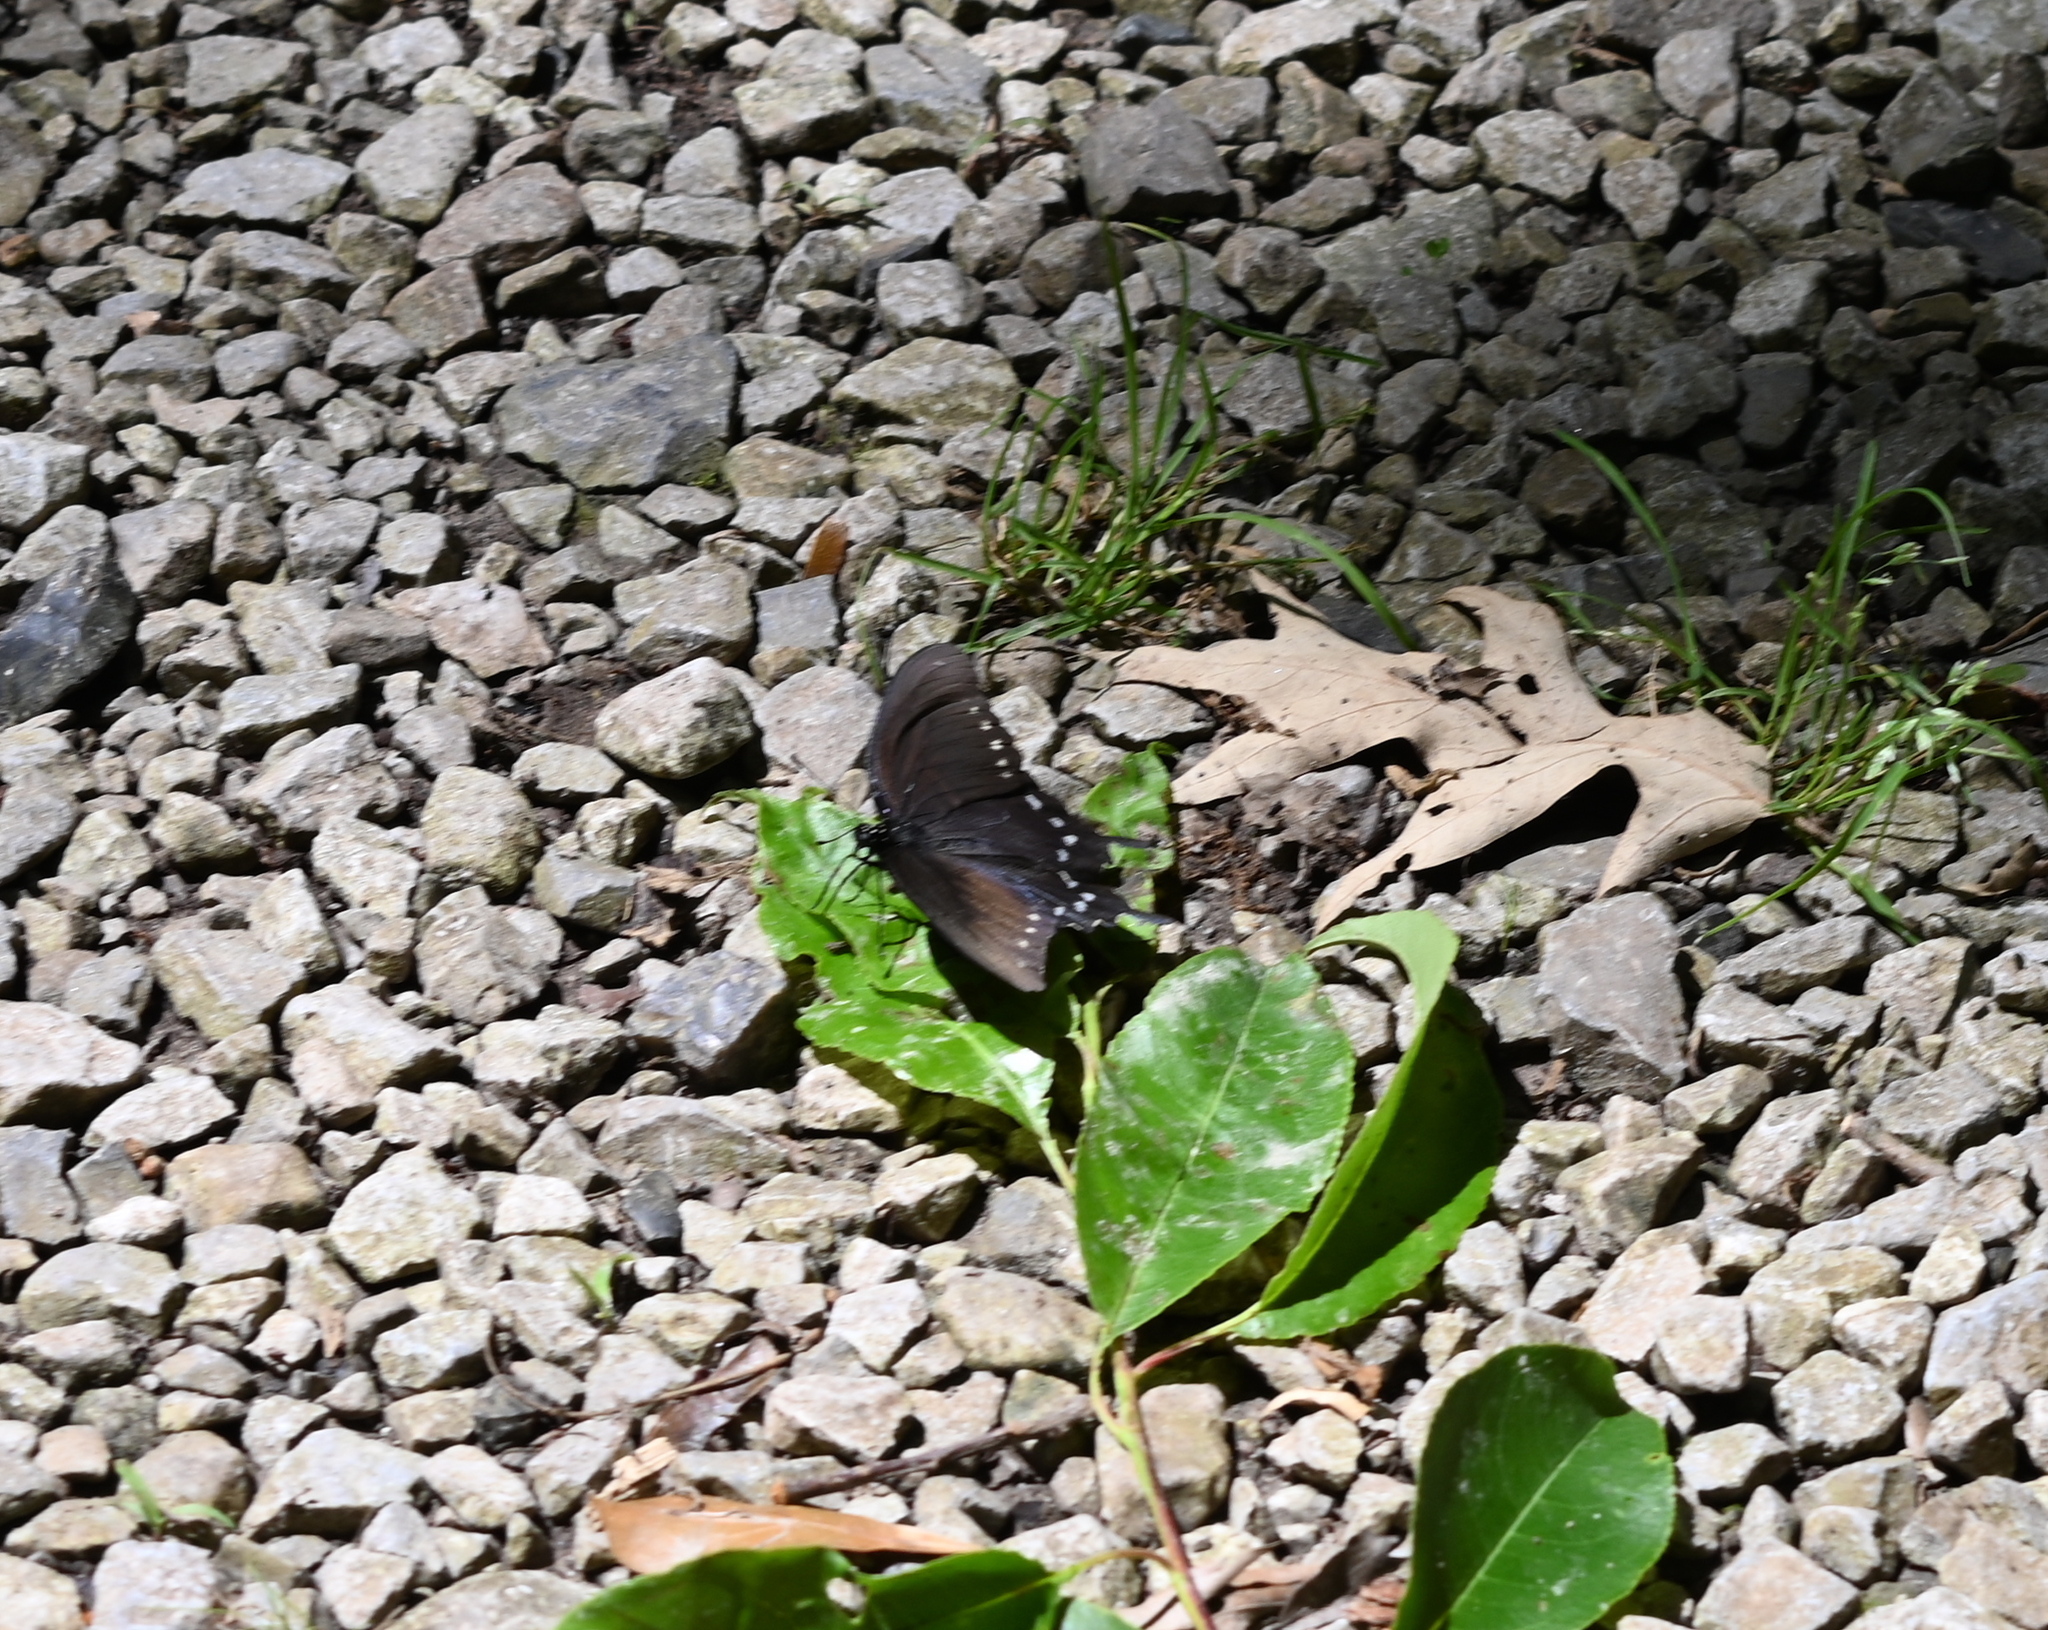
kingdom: Animalia
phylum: Arthropoda
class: Insecta
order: Lepidoptera
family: Papilionidae
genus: Battus
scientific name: Battus philenor
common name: Pipevine swallowtail
